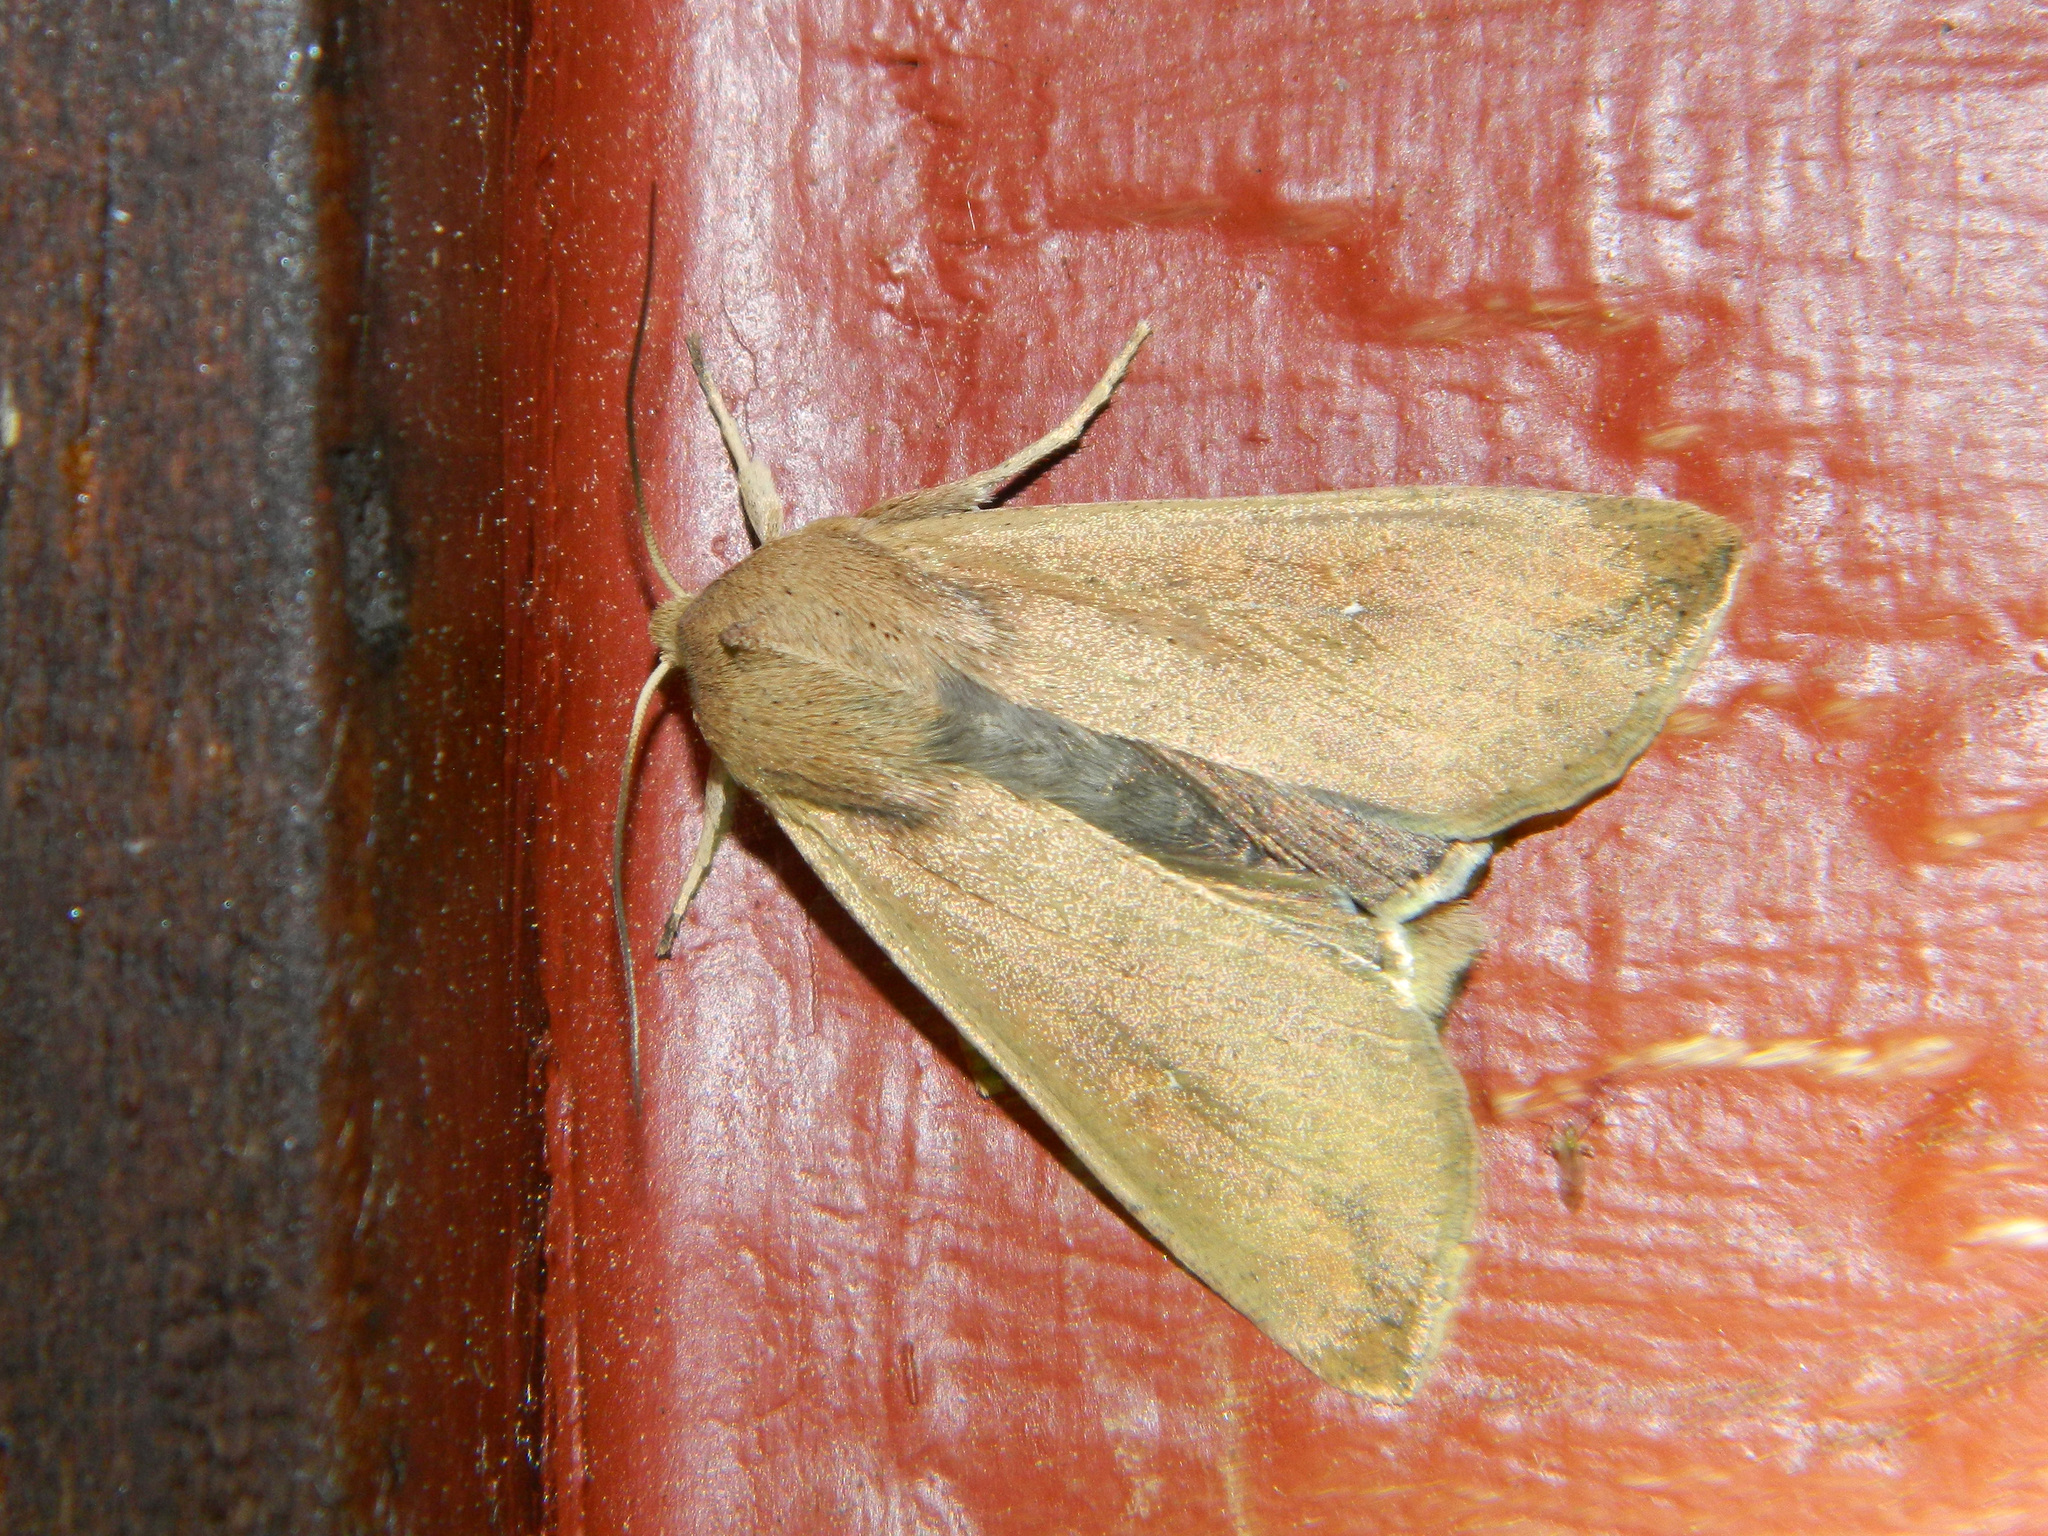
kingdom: Animalia
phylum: Arthropoda
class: Insecta
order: Lepidoptera
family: Noctuidae
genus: Mythimna
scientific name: Mythimna unipuncta
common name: White-speck
